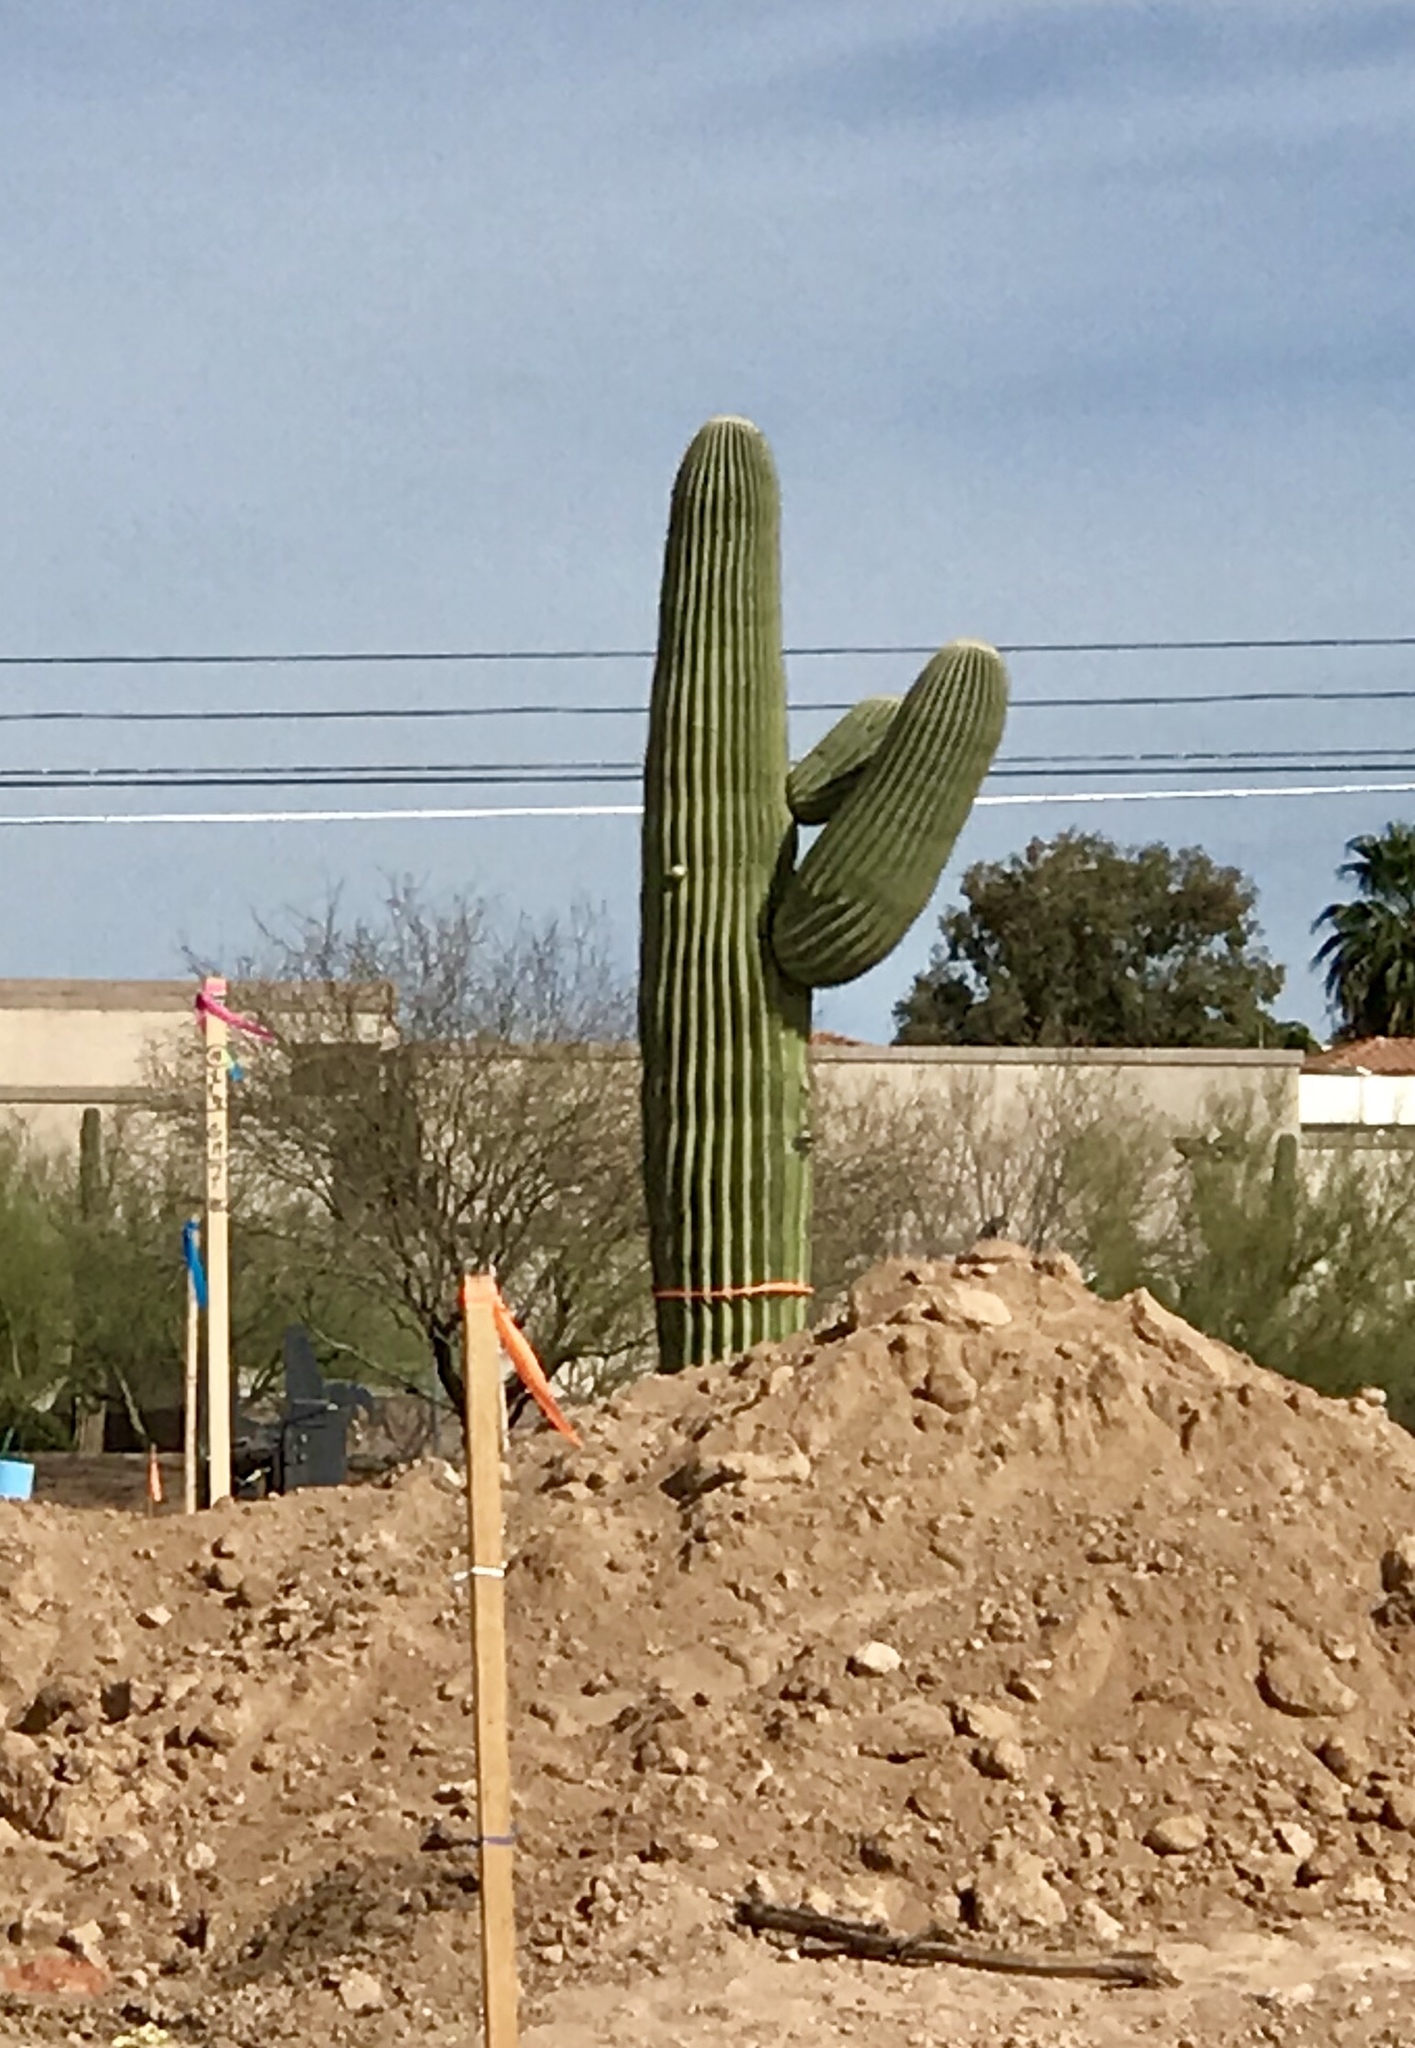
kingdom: Plantae
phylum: Tracheophyta
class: Magnoliopsida
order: Caryophyllales
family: Cactaceae
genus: Carnegiea
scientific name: Carnegiea gigantea
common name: Saguaro
